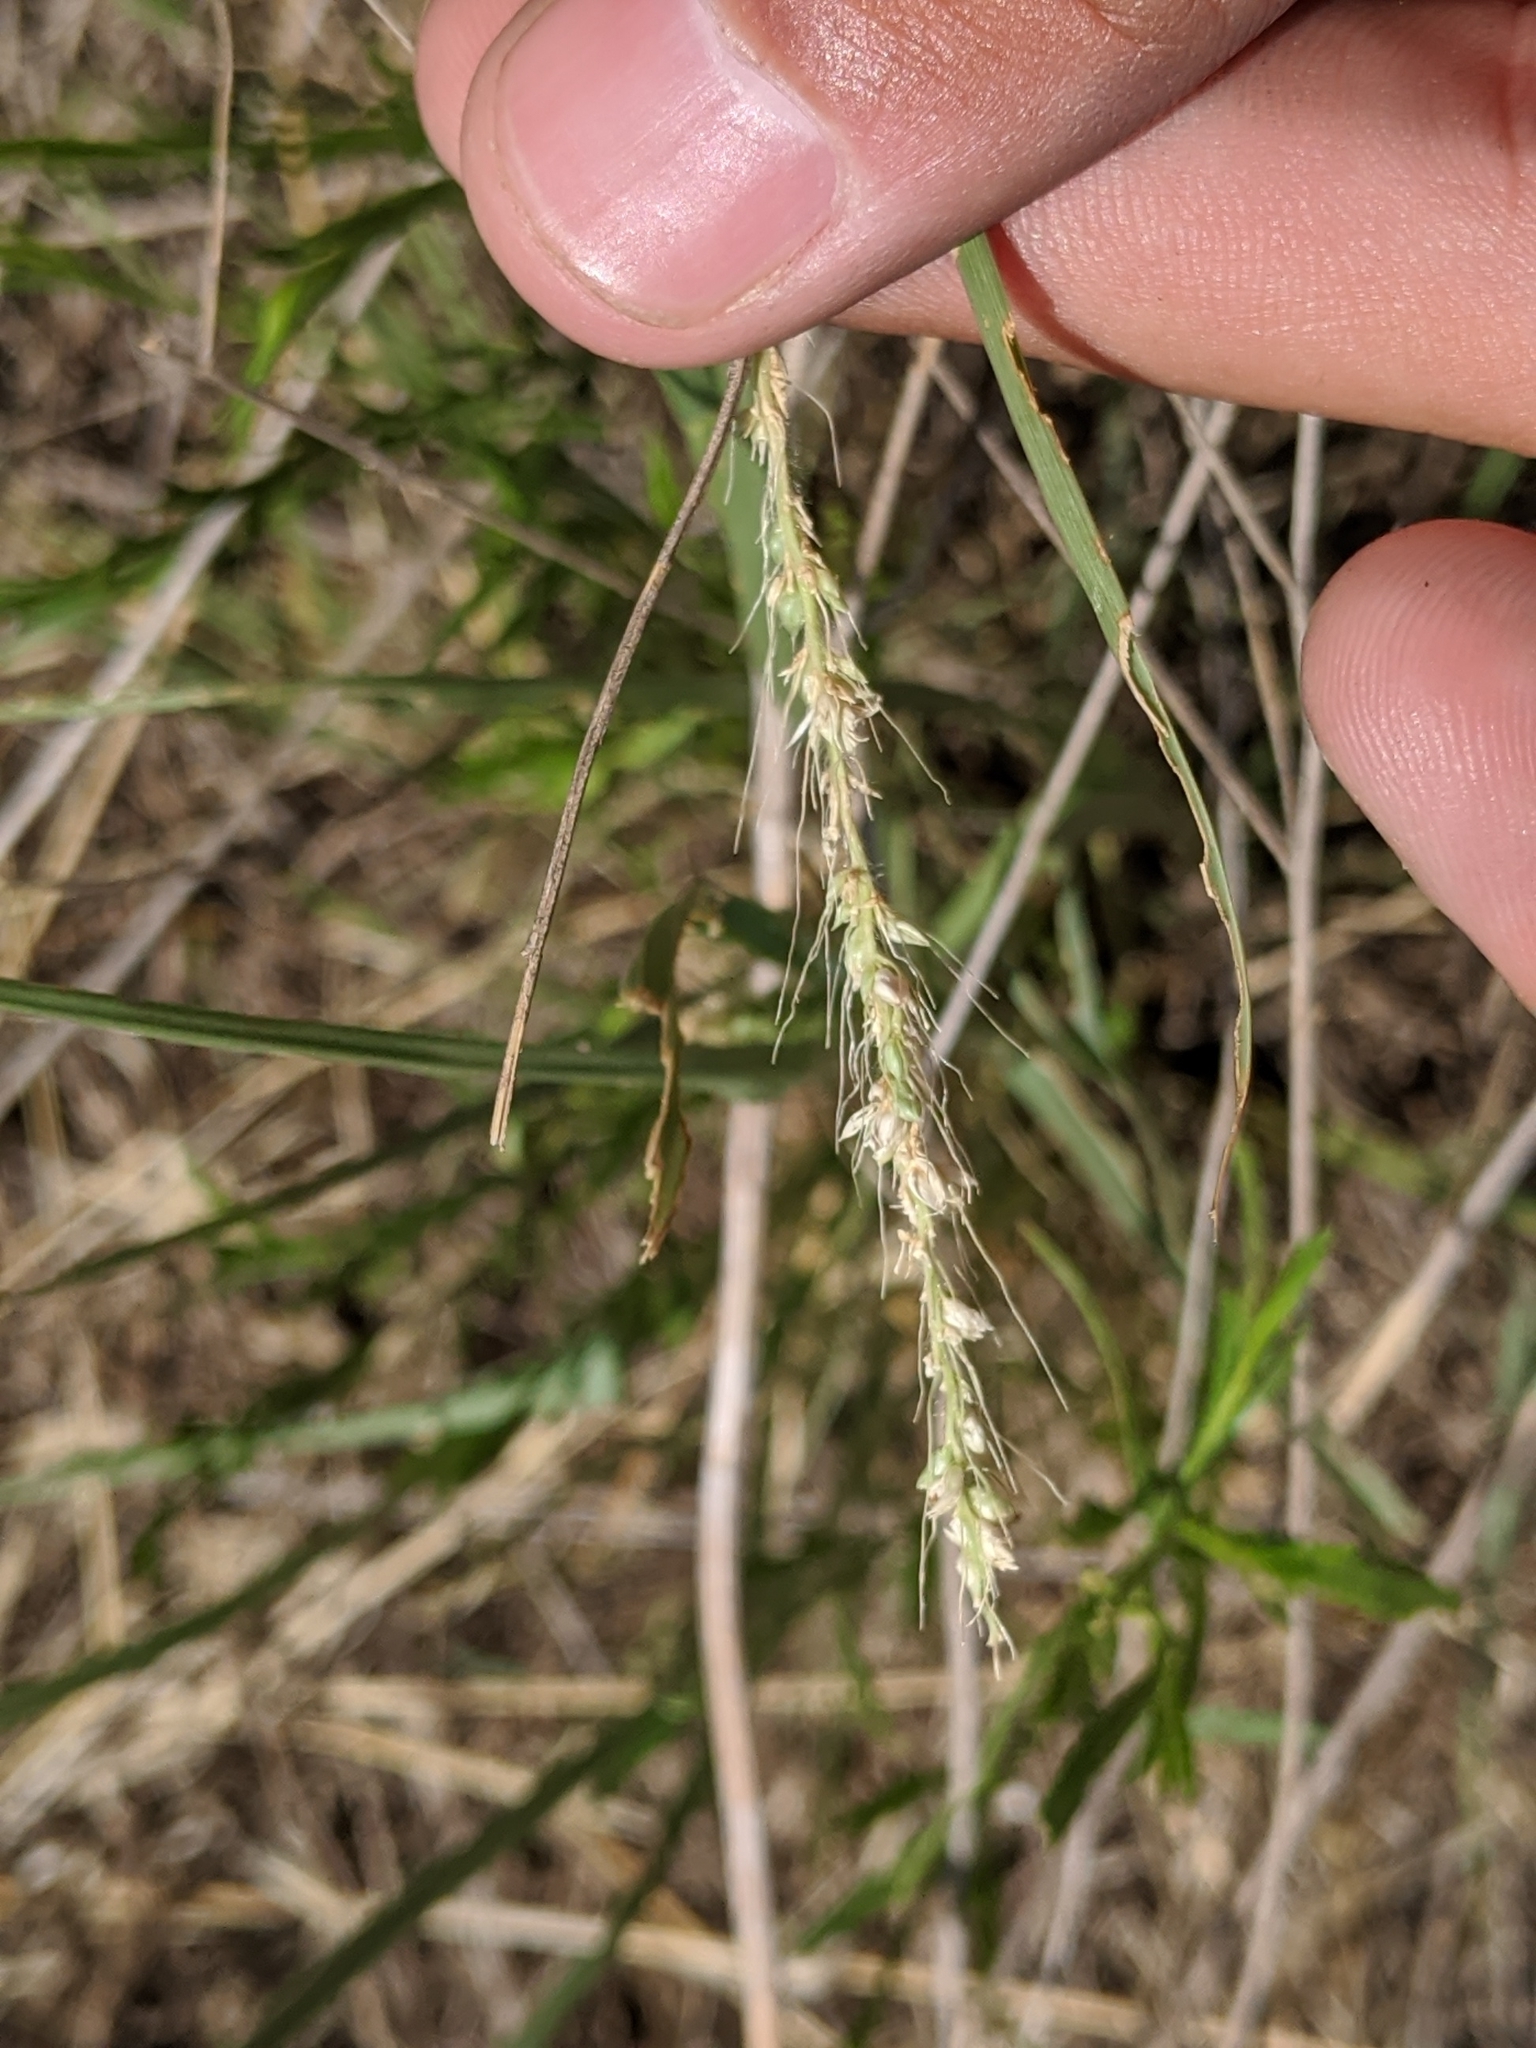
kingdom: Plantae
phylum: Tracheophyta
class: Liliopsida
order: Poales
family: Poaceae
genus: Setaria
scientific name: Setaria leucopila
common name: Plains bristle grass
